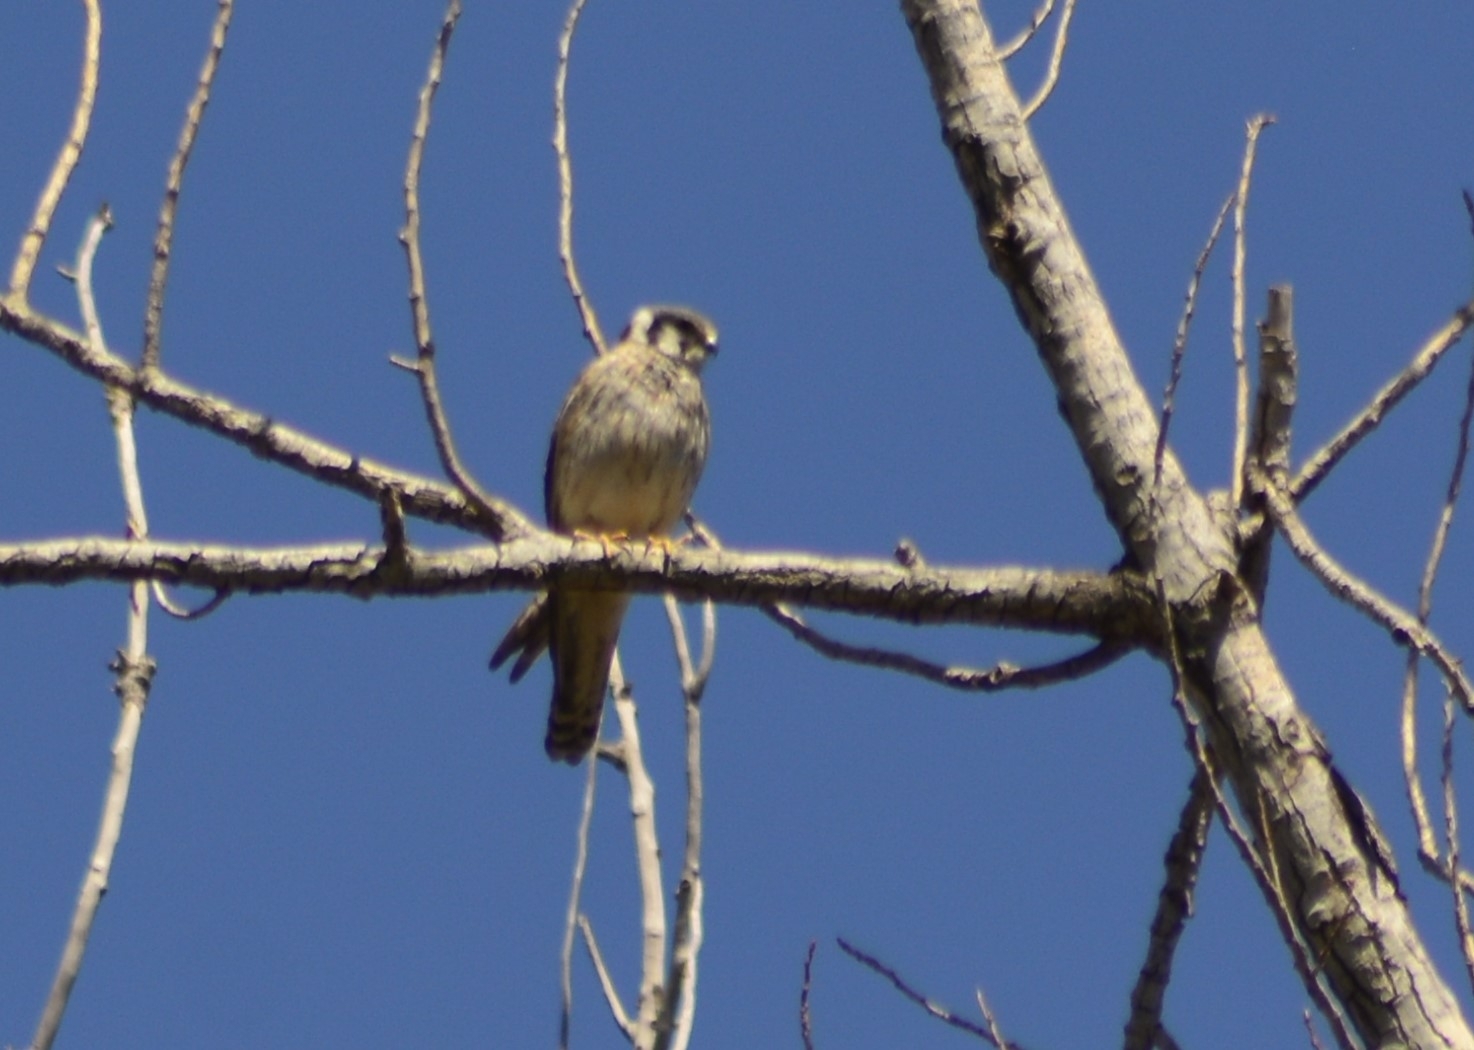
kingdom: Animalia
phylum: Chordata
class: Aves
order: Falconiformes
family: Falconidae
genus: Falco
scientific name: Falco sparverius
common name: American kestrel
